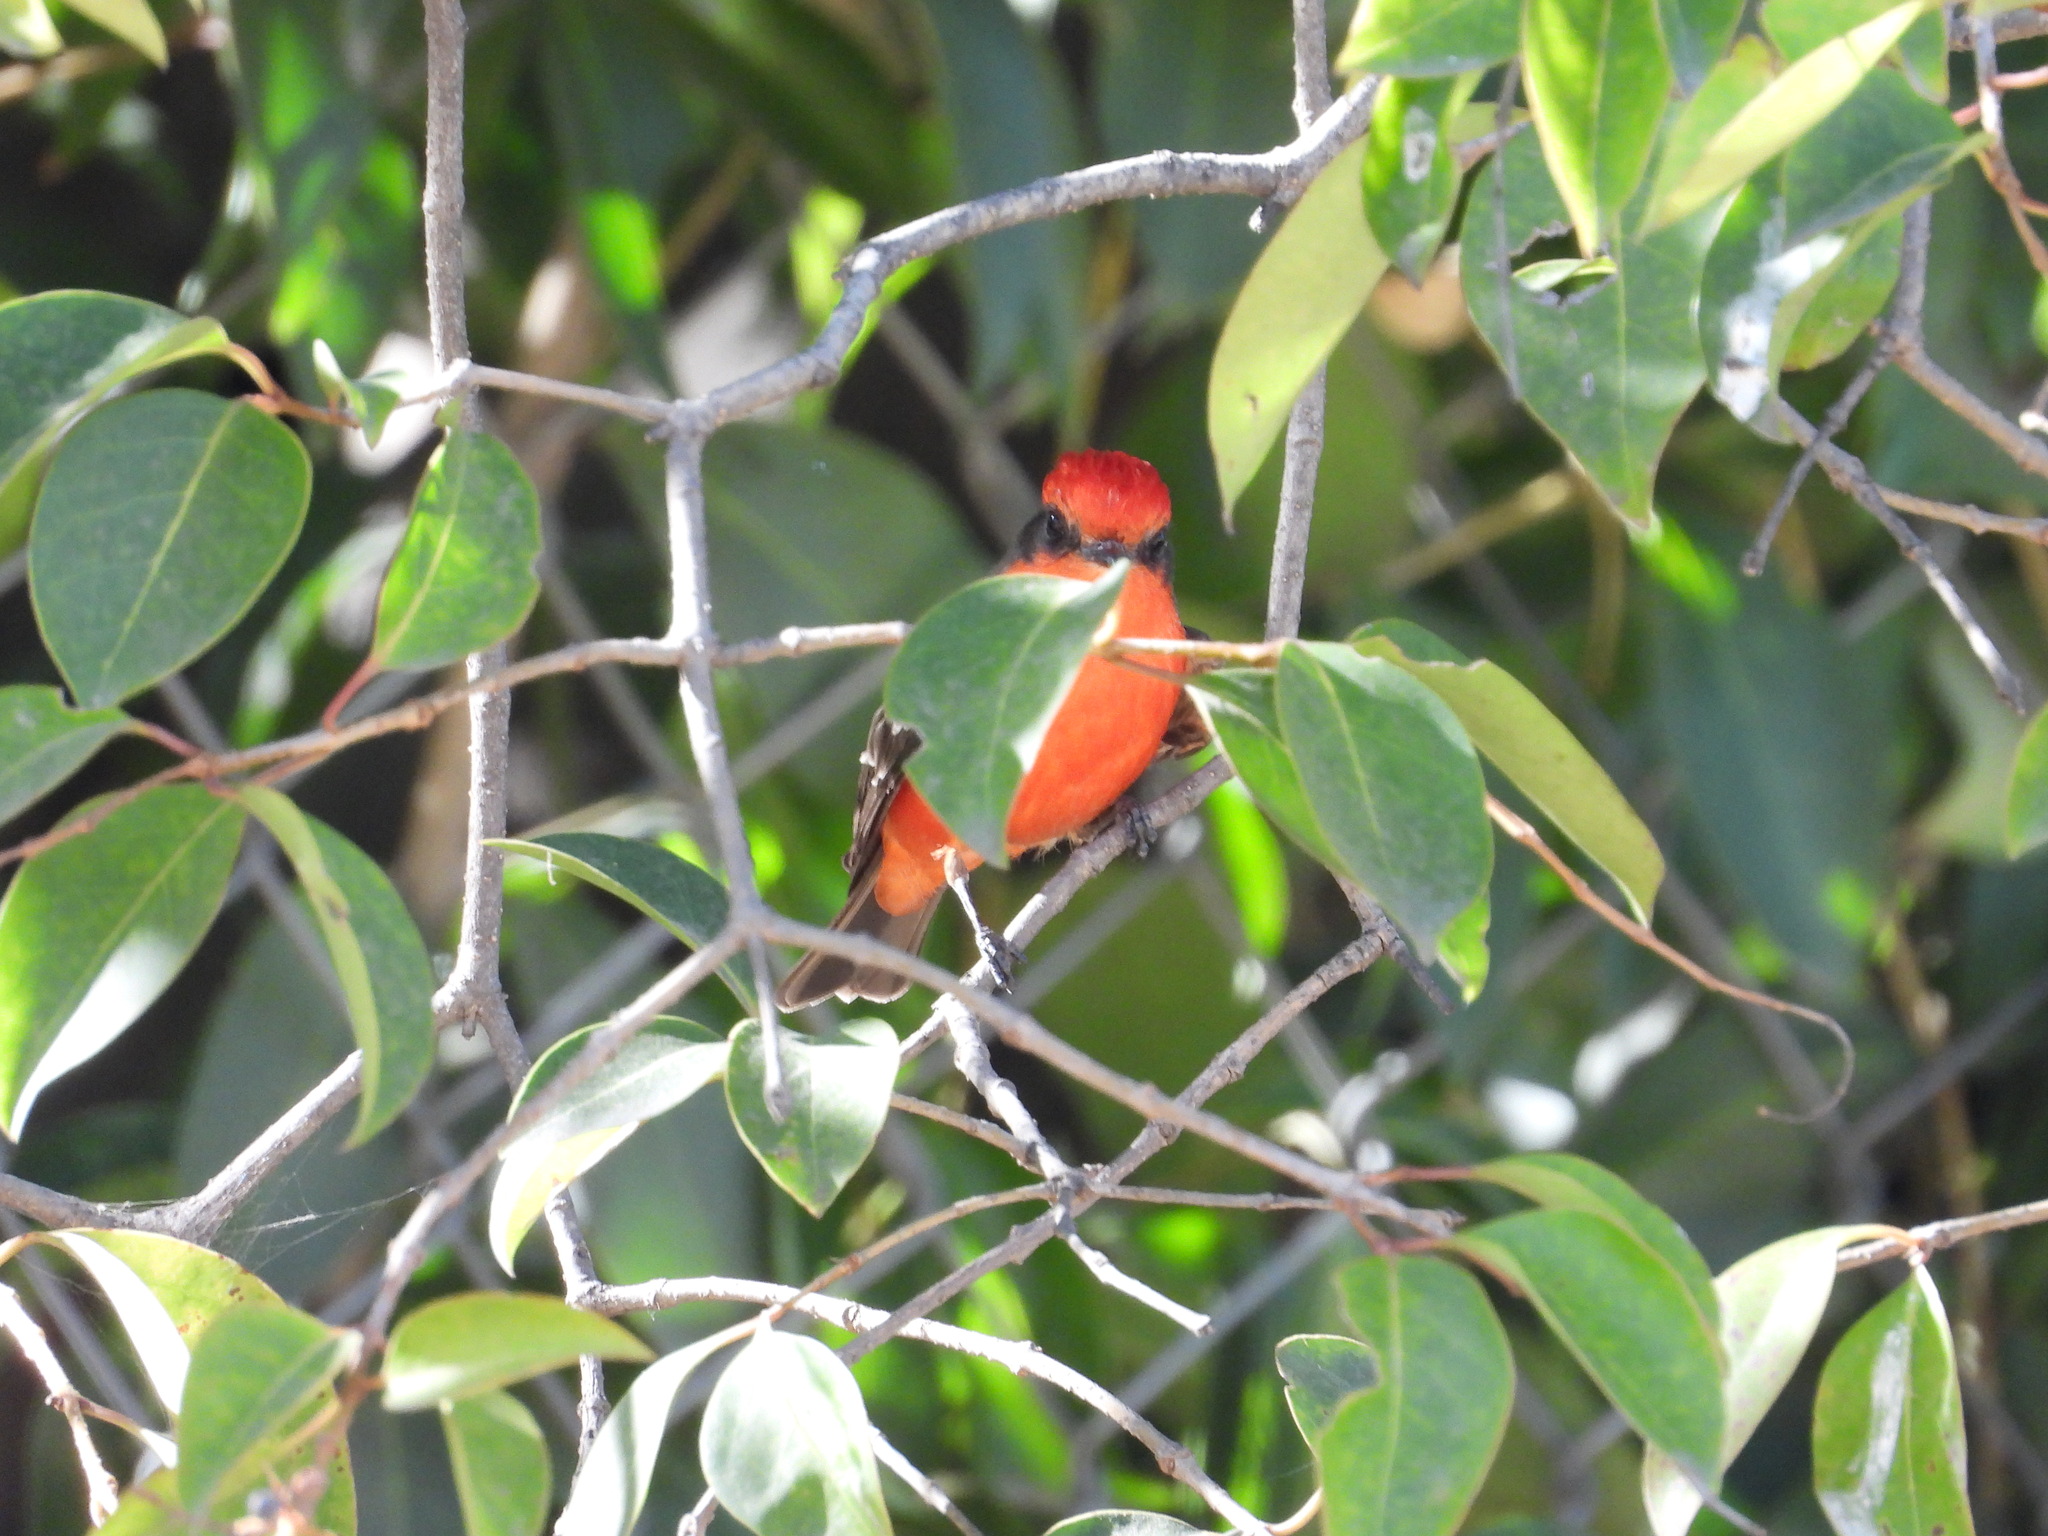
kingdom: Animalia
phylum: Chordata
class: Aves
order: Passeriformes
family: Tyrannidae
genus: Pyrocephalus
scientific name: Pyrocephalus rubinus
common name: Vermilion flycatcher
